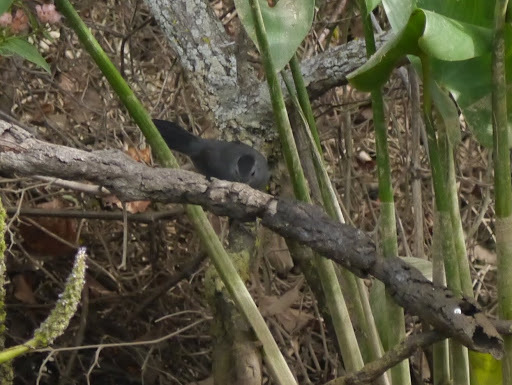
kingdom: Animalia
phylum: Chordata
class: Aves
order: Passeriformes
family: Mimidae
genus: Dumetella
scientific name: Dumetella carolinensis
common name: Gray catbird
